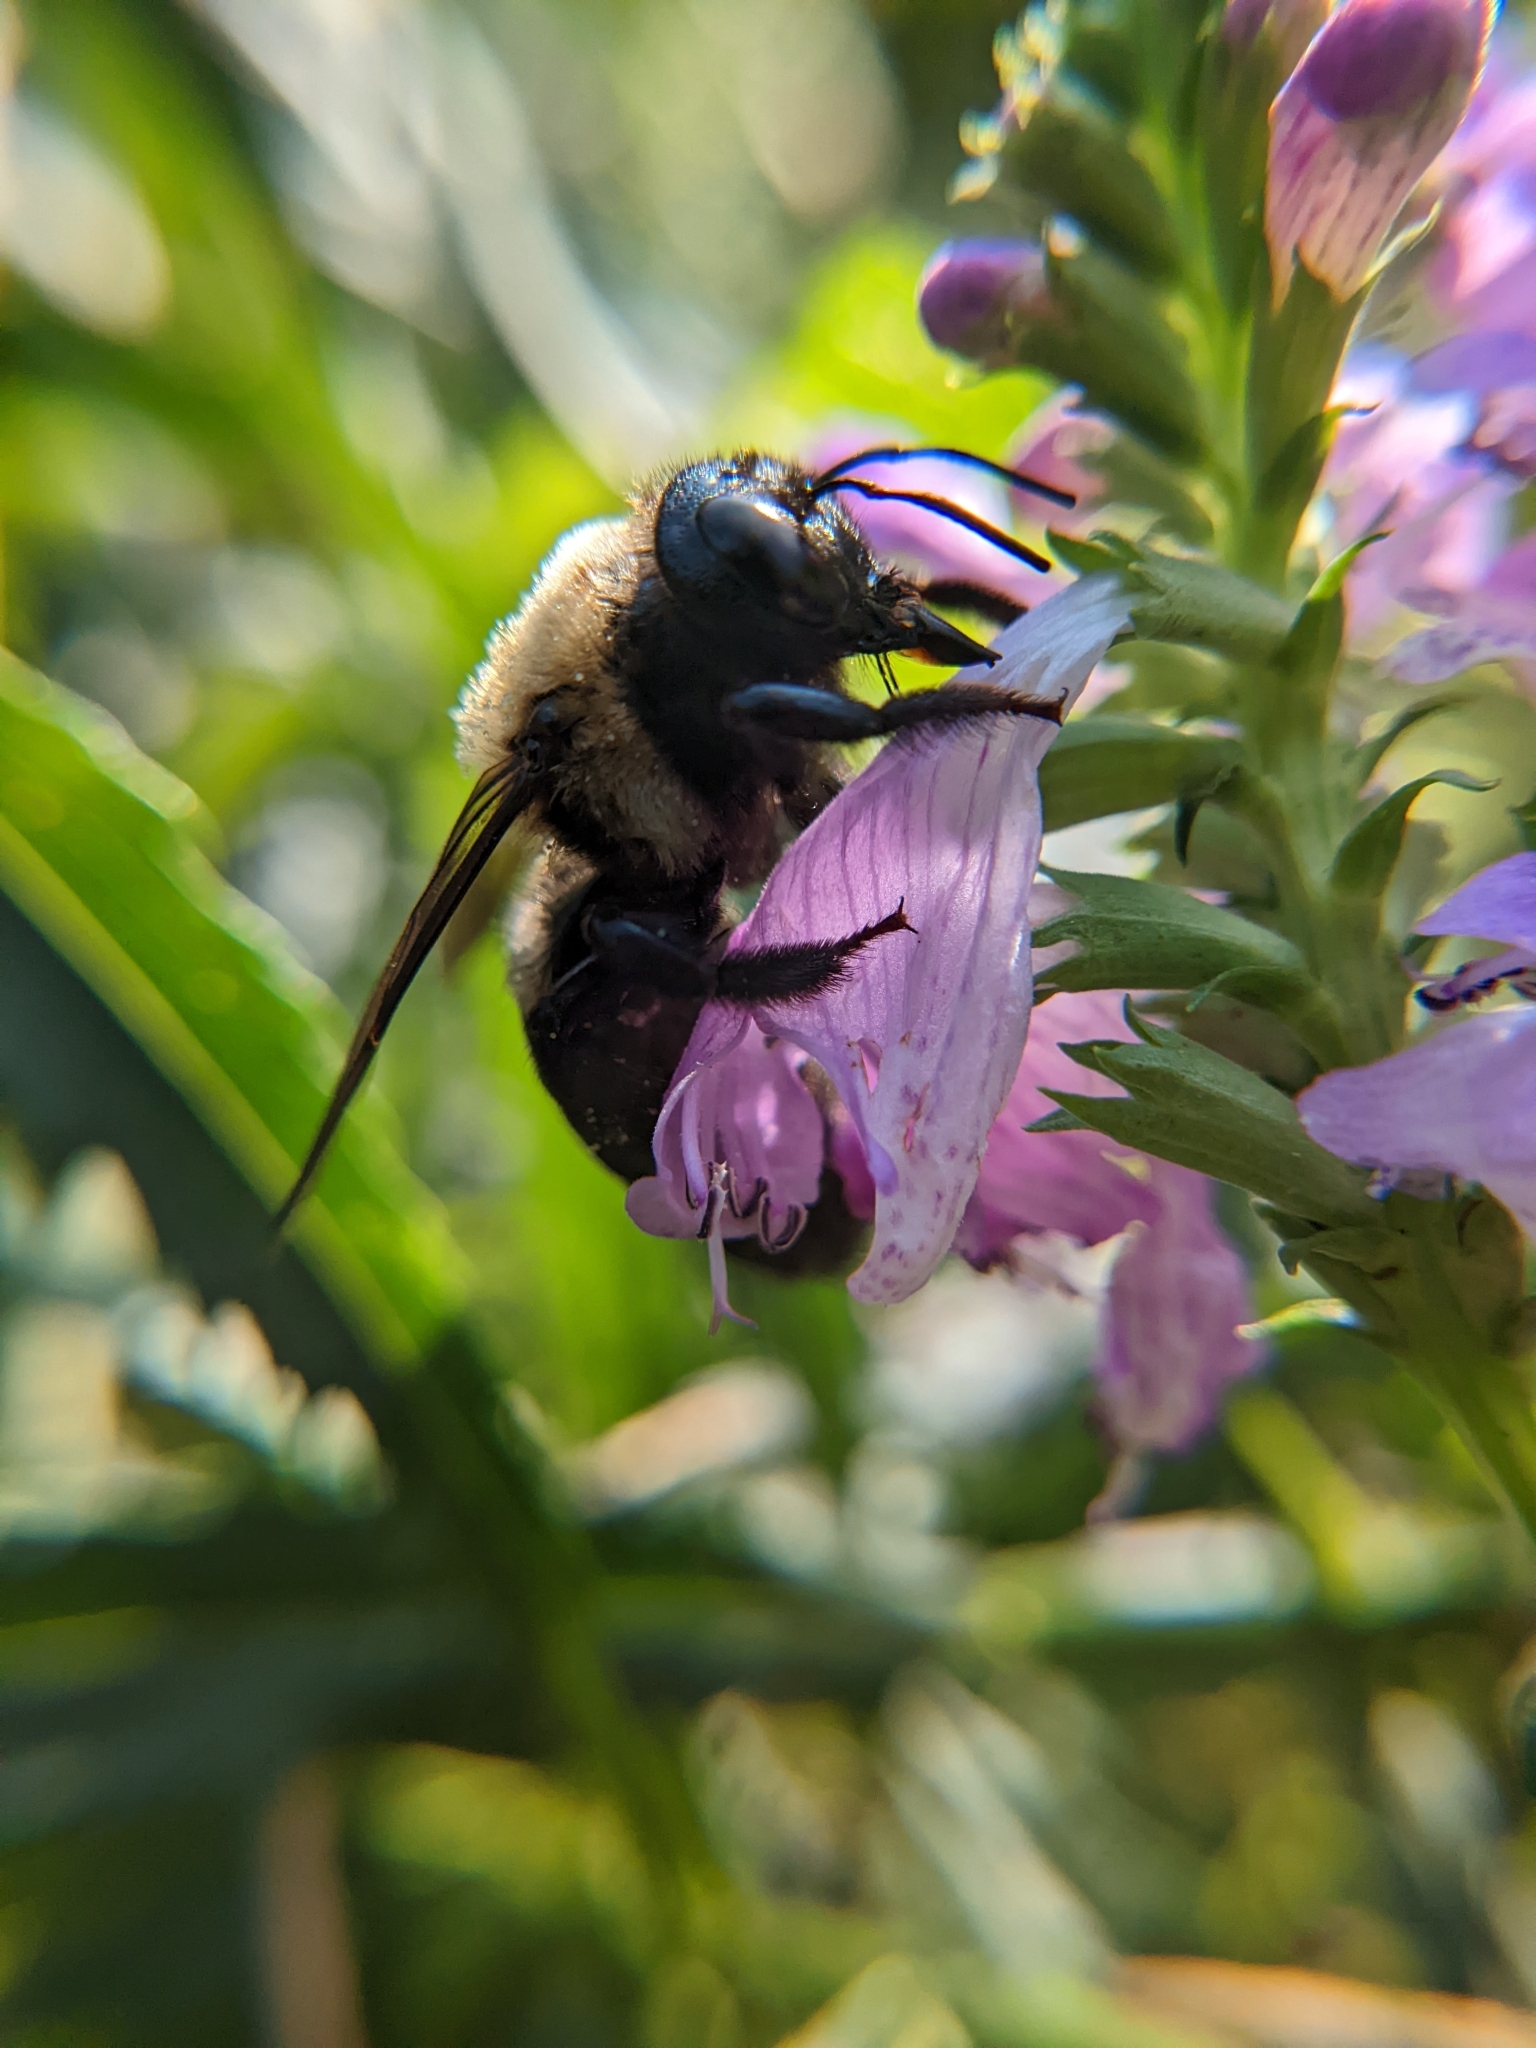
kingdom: Animalia
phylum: Arthropoda
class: Insecta
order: Hymenoptera
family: Apidae
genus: Xylocopa
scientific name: Xylocopa virginica
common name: Carpenter bee
